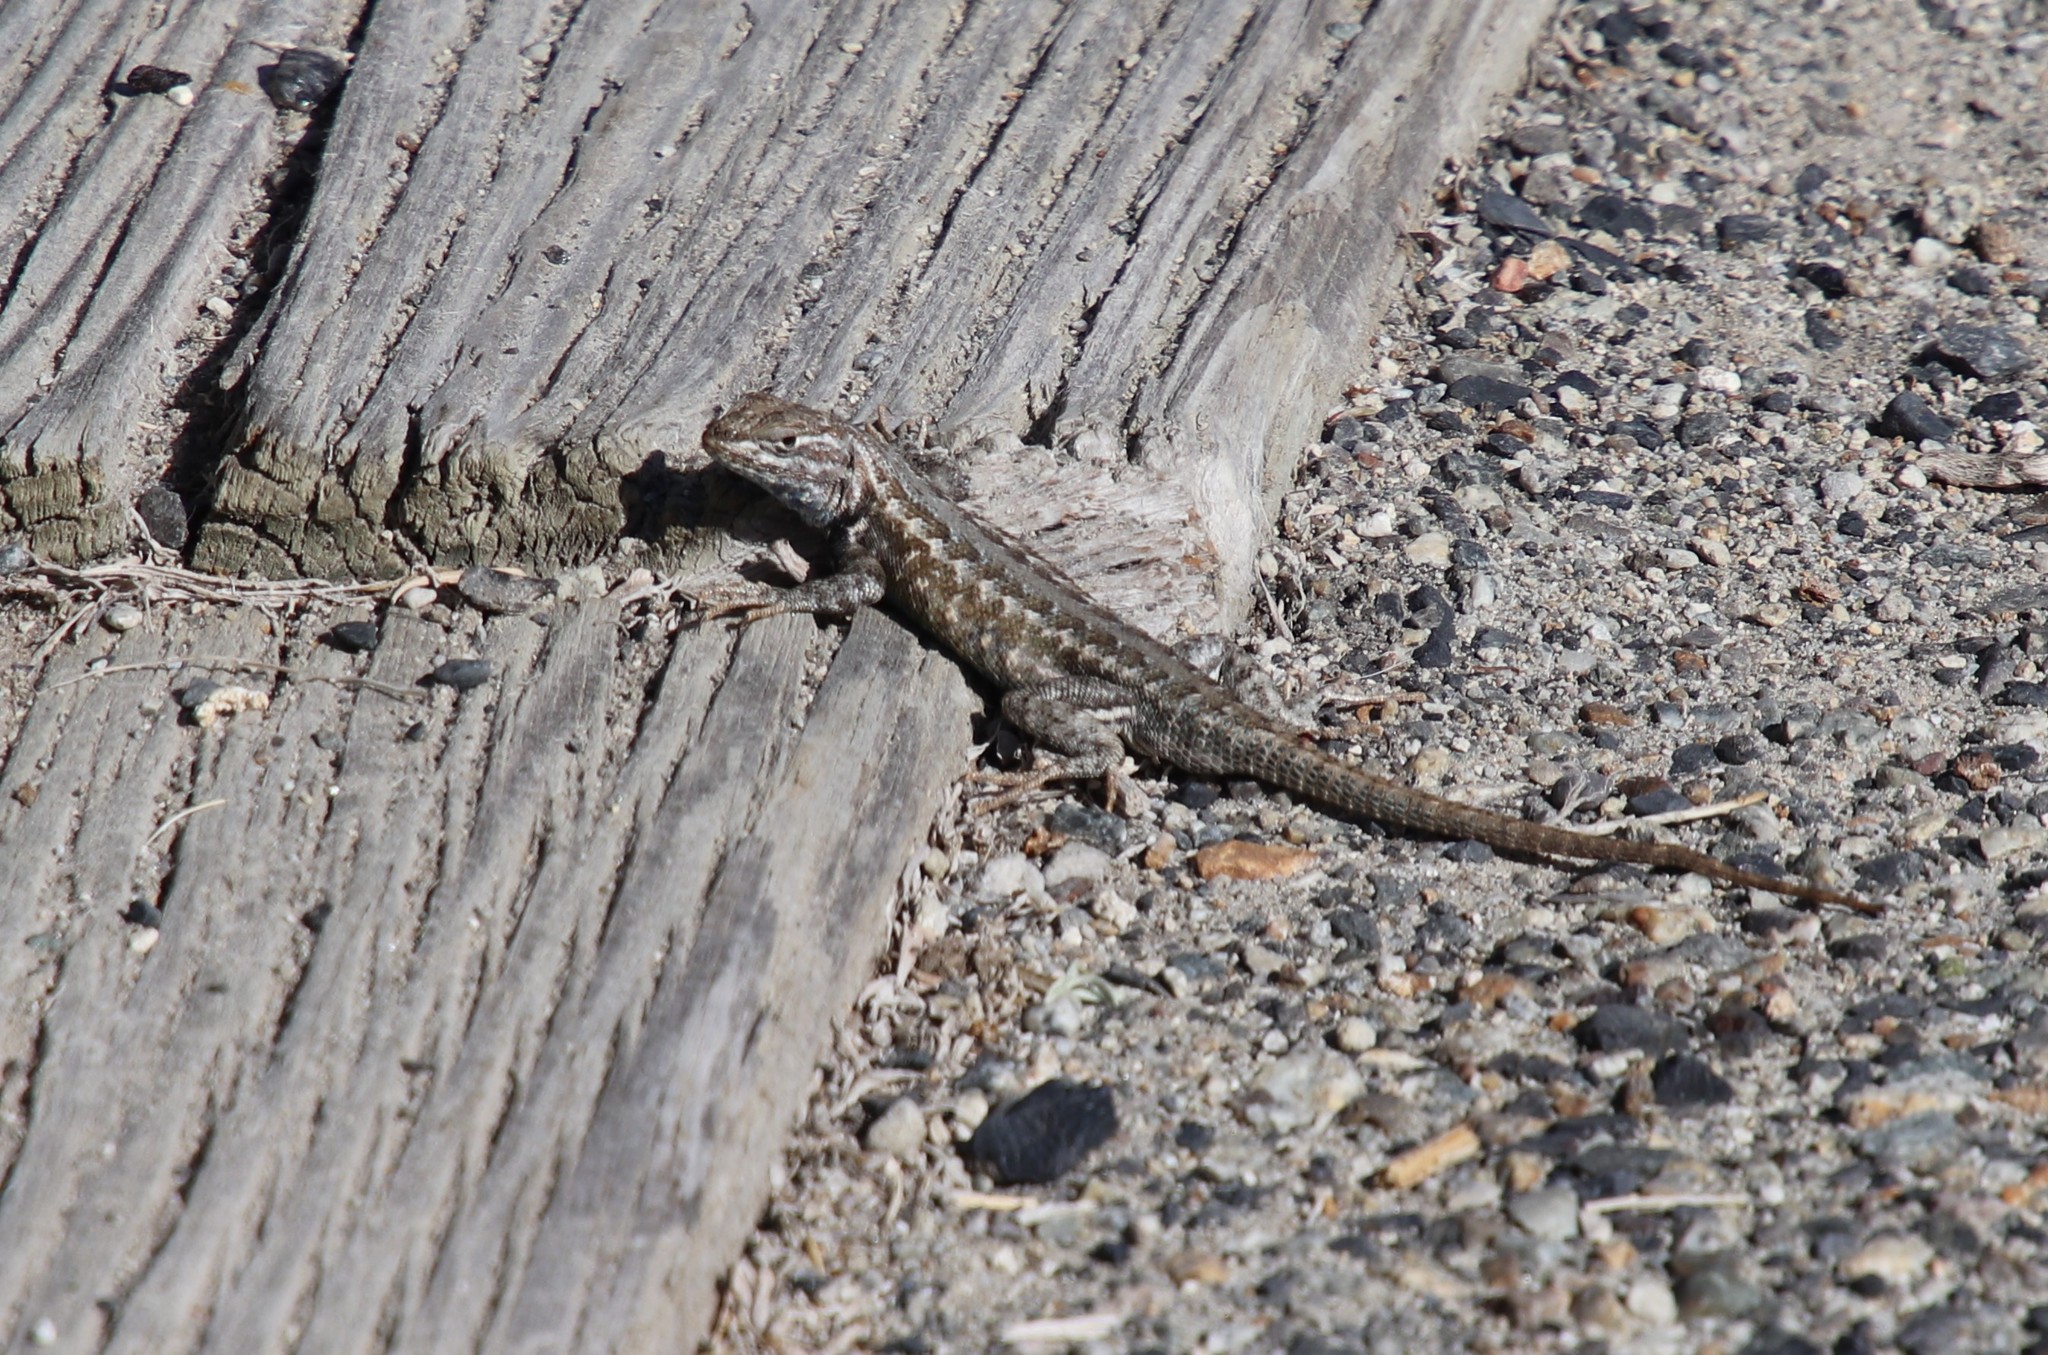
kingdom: Animalia
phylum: Chordata
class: Squamata
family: Phrynosomatidae
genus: Sceloporus
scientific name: Sceloporus graciosus
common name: Sagebrush lizard
